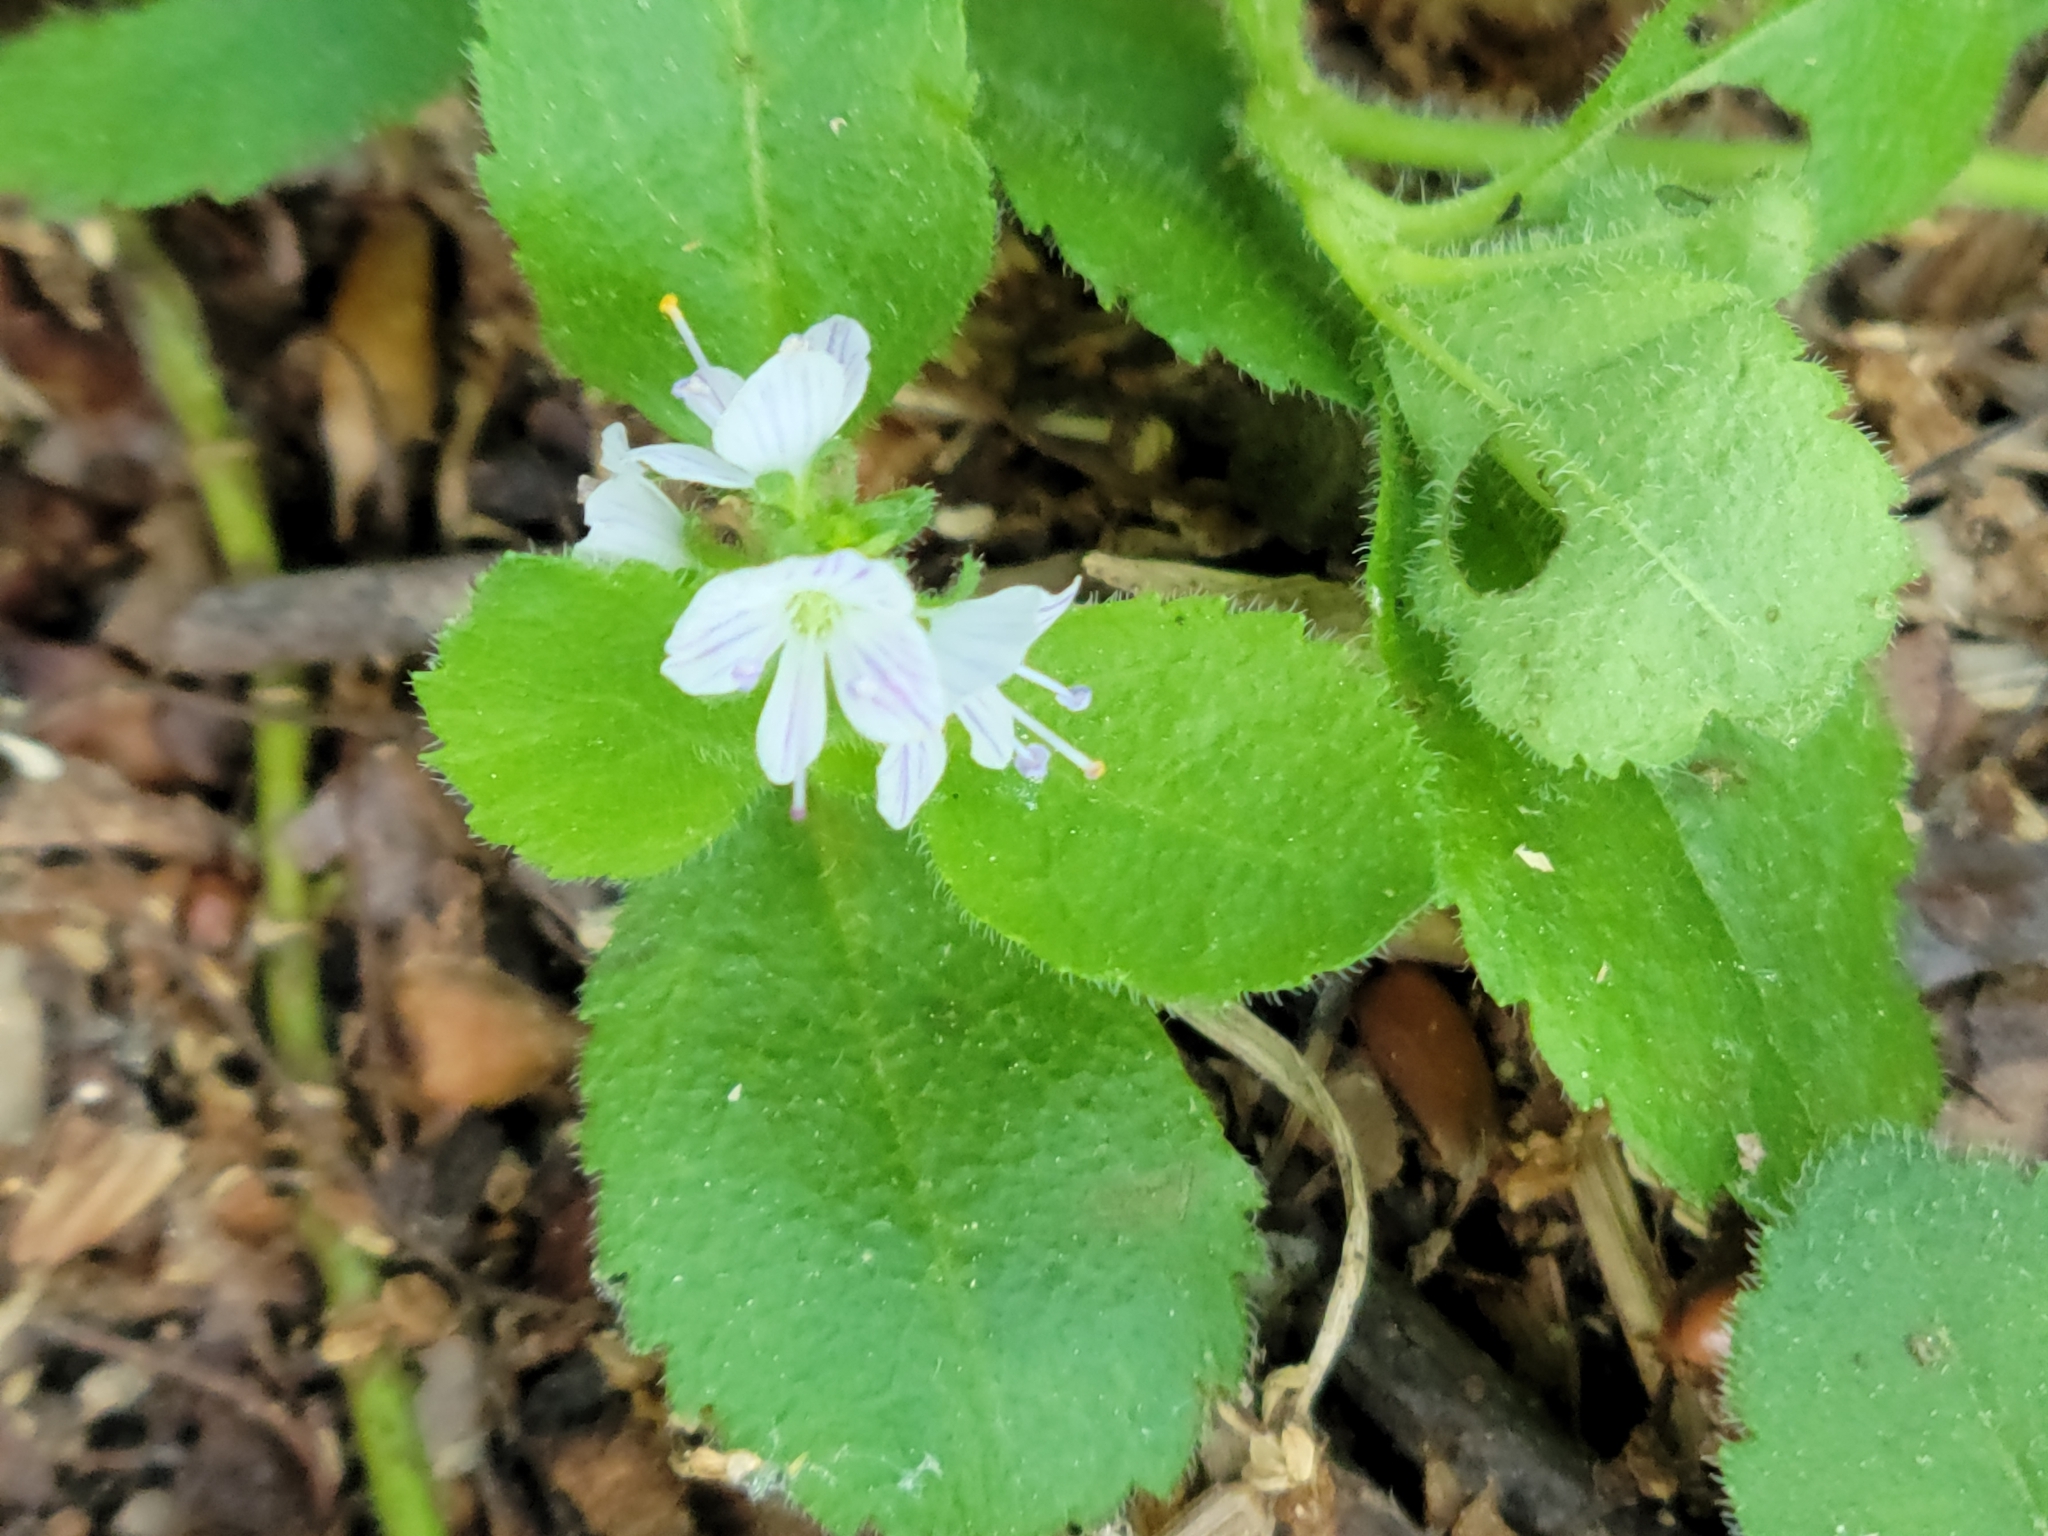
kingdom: Plantae
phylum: Tracheophyta
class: Magnoliopsida
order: Lamiales
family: Plantaginaceae
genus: Veronica
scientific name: Veronica officinalis
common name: Common speedwell
